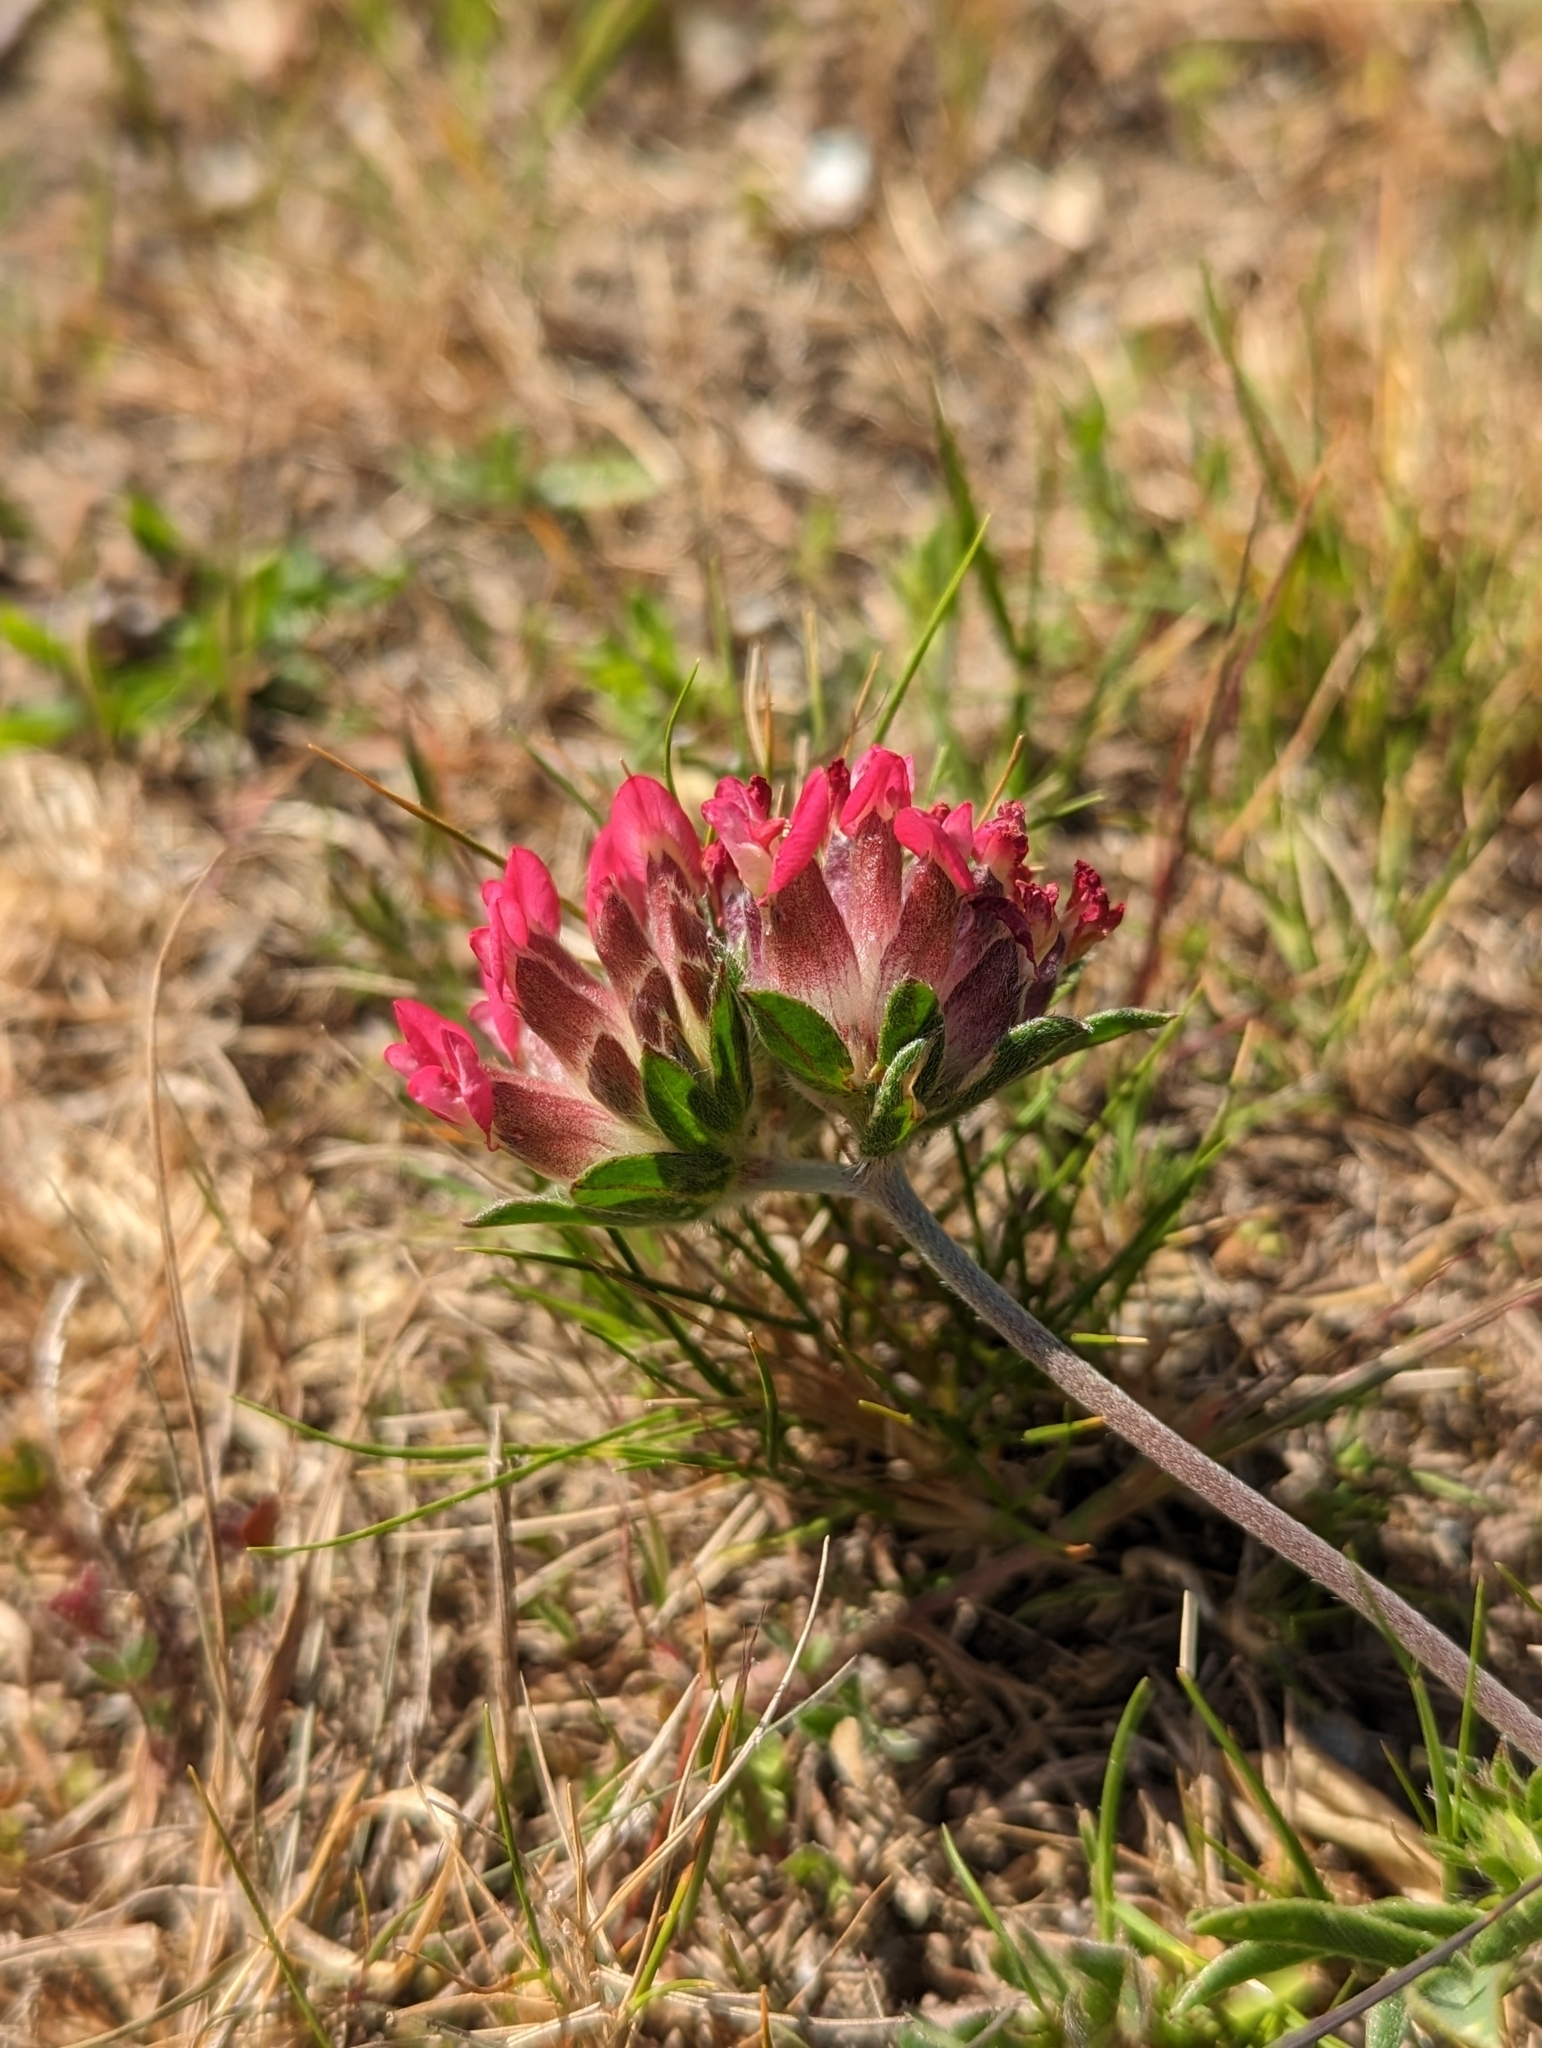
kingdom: Plantae
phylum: Tracheophyta
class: Magnoliopsida
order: Fabales
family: Fabaceae
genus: Anthyllis
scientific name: Anthyllis vulneraria
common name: Kidney vetch
